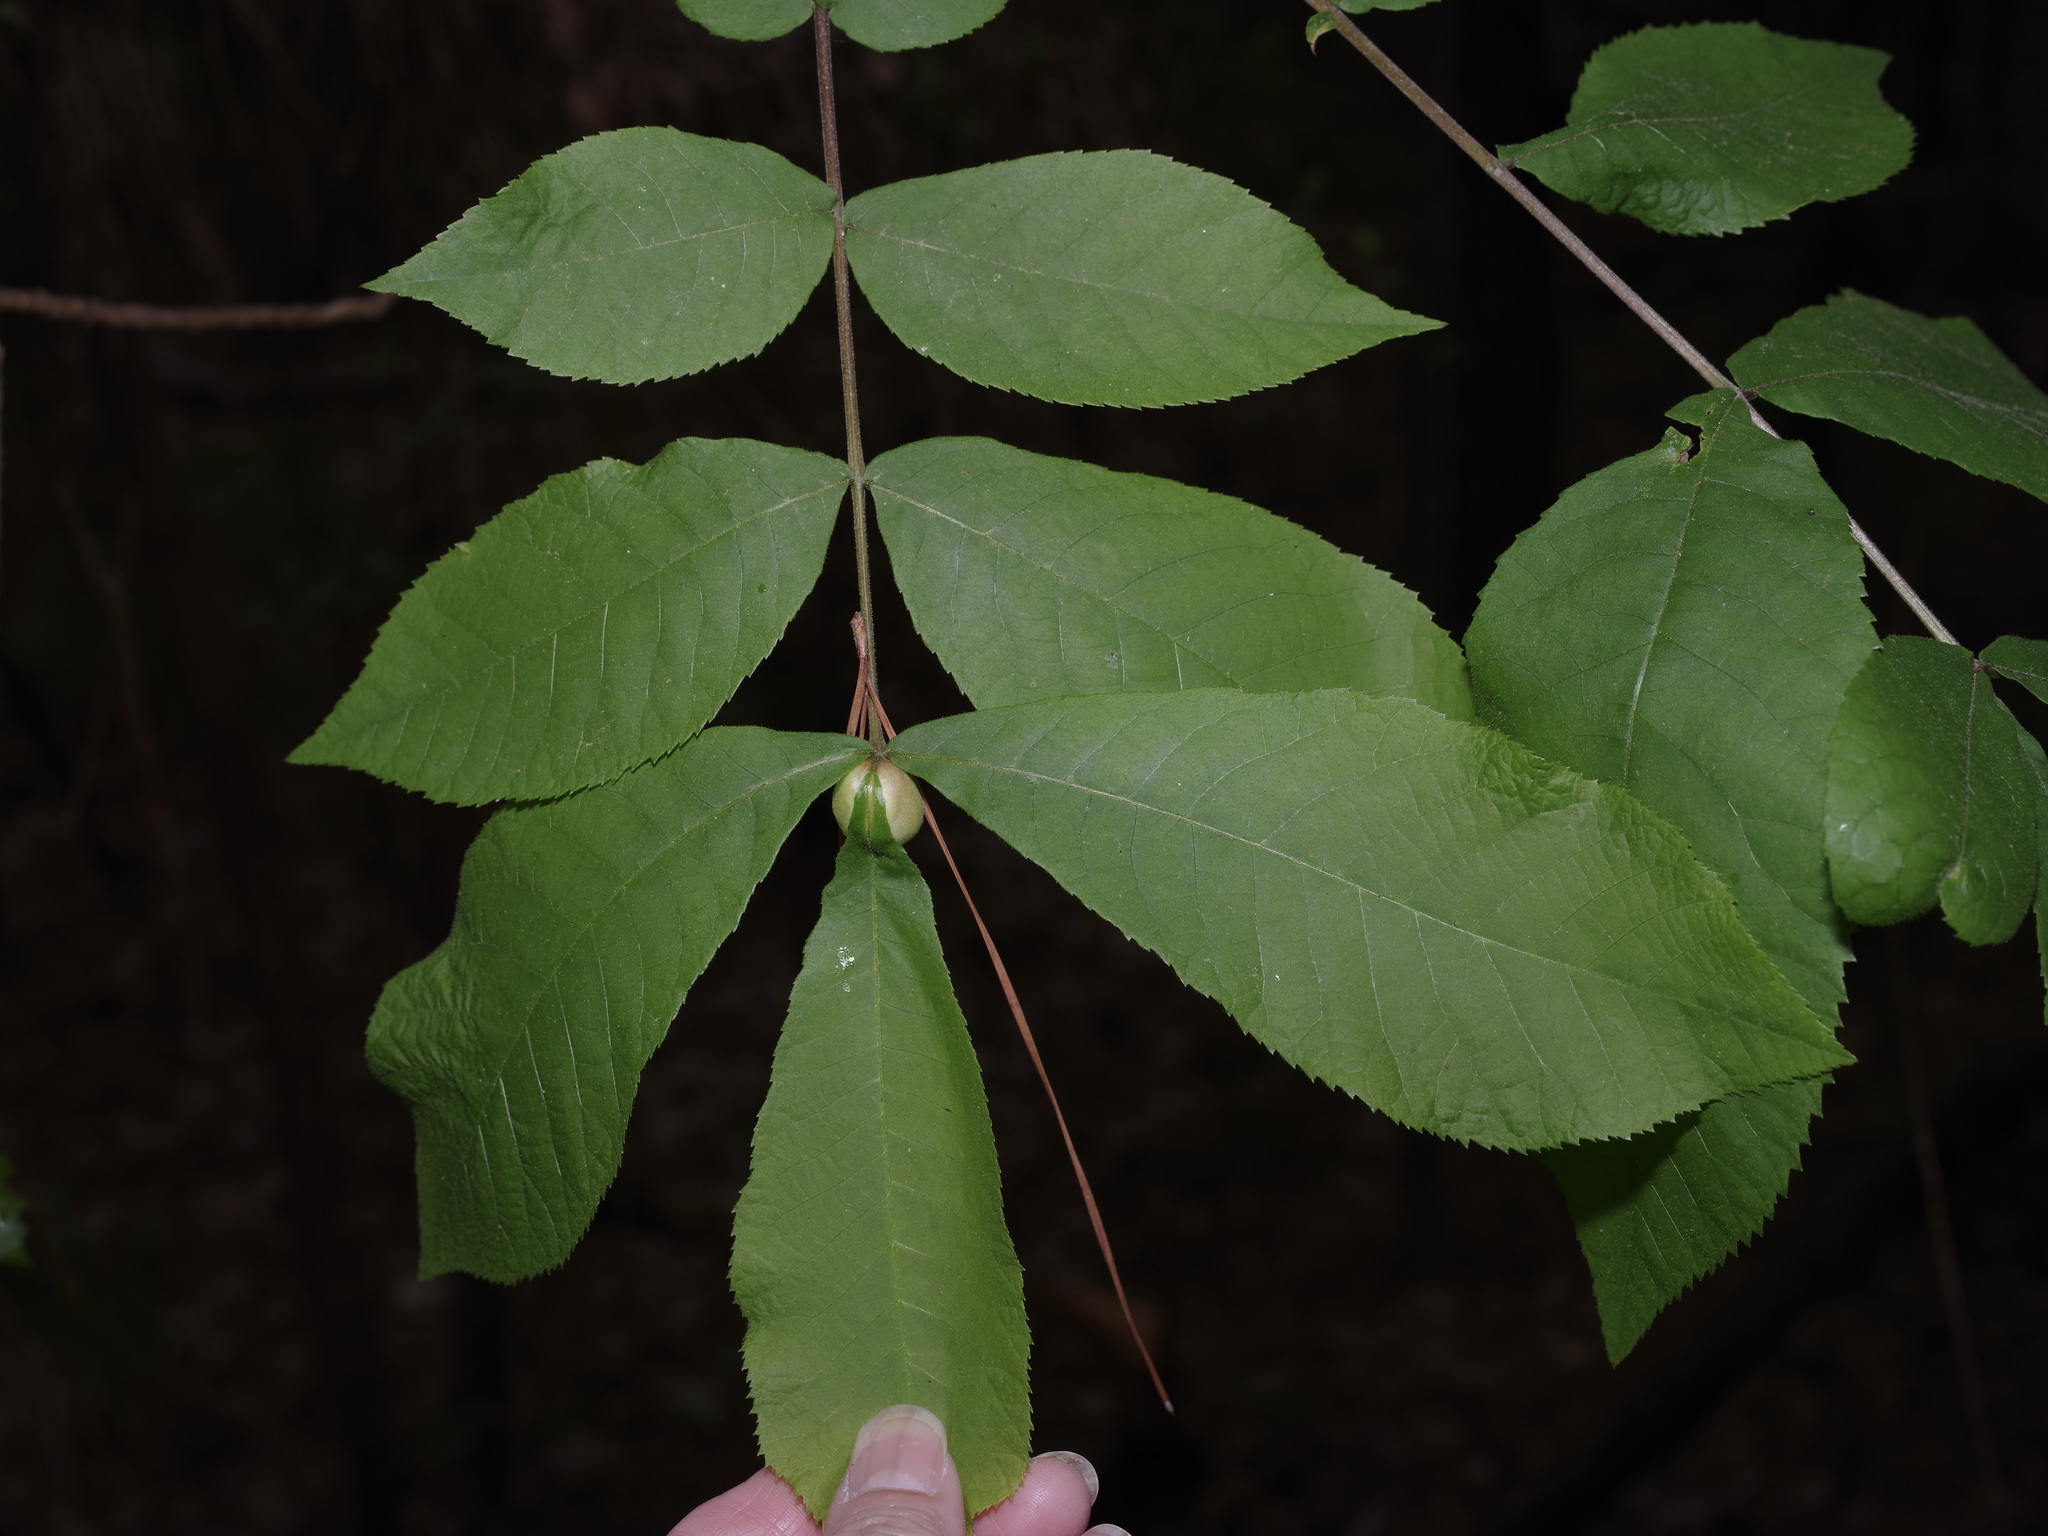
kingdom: Animalia
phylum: Arthropoda
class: Insecta
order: Hemiptera
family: Phylloxeridae
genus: Phylloxera
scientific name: Phylloxera caryaecaulis
